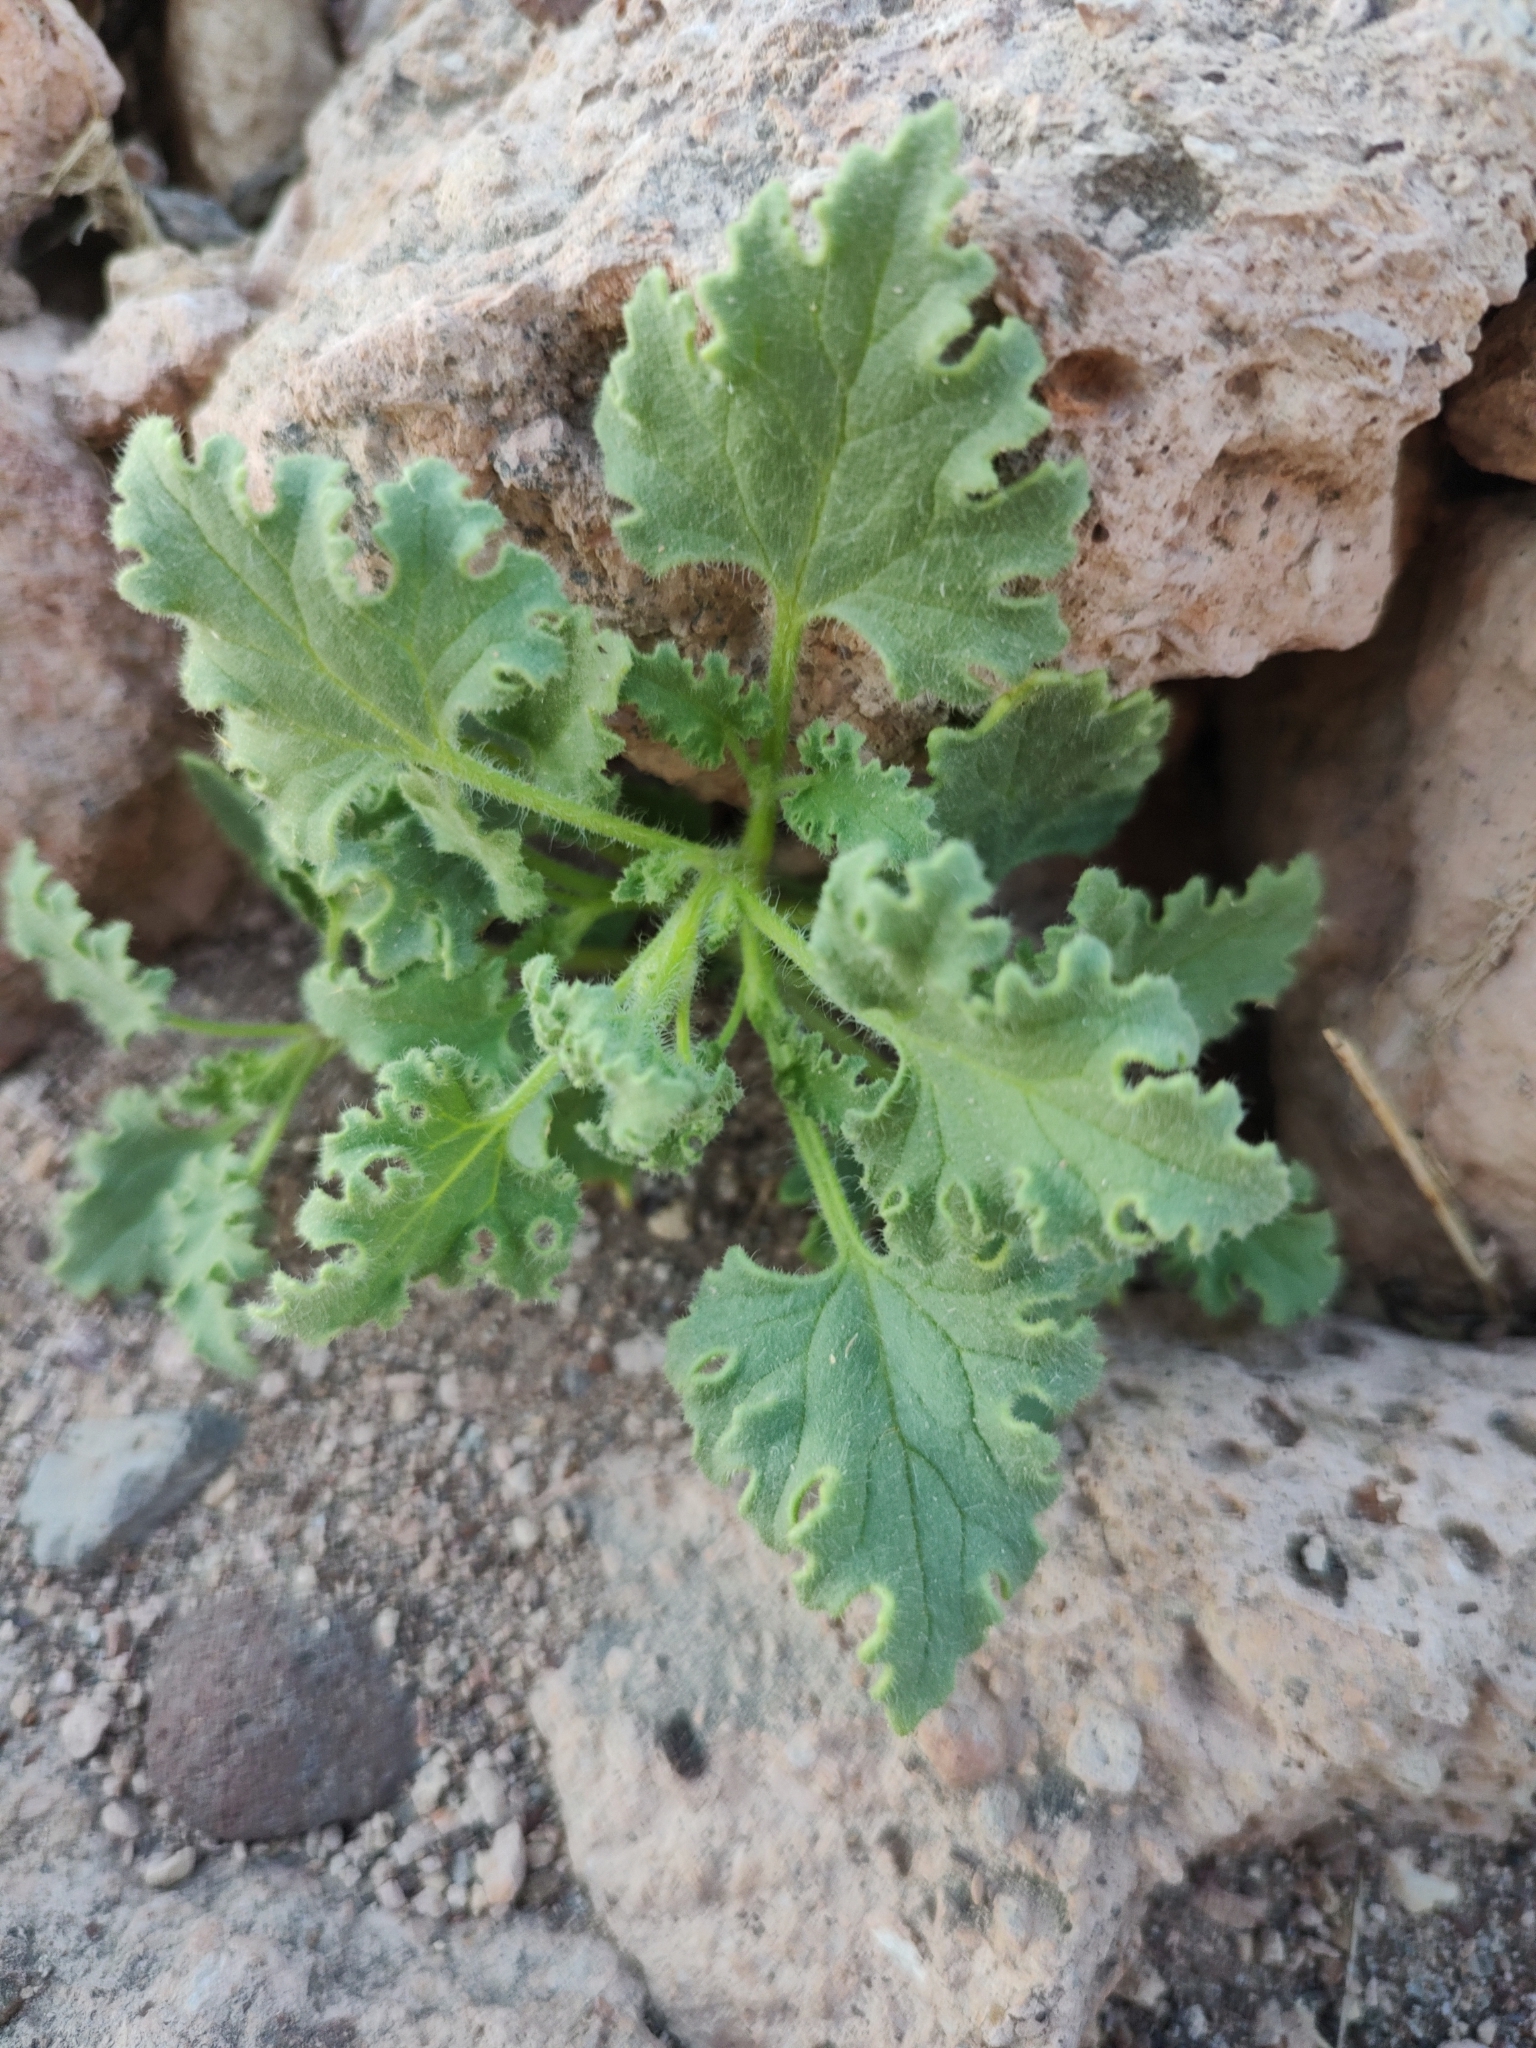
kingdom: Plantae
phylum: Tracheophyta
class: Magnoliopsida
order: Asterales
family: Asteraceae
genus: Perityle
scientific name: Perityle crassifolia
